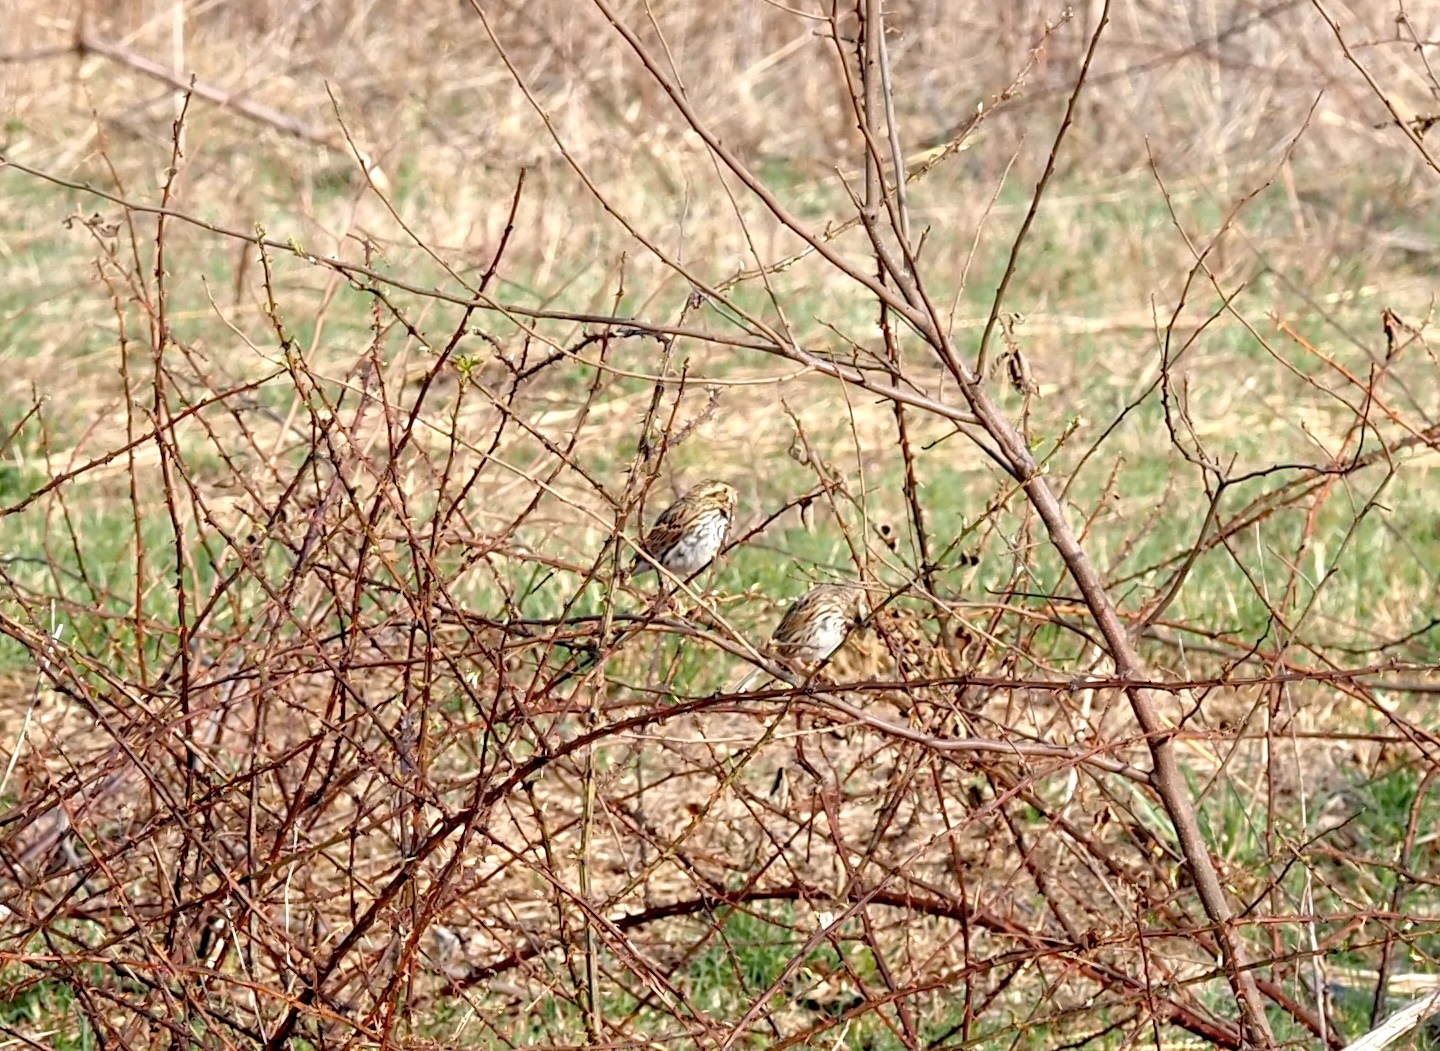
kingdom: Animalia
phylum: Chordata
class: Aves
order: Passeriformes
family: Passerellidae
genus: Passerculus
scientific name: Passerculus sandwichensis
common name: Savannah sparrow
